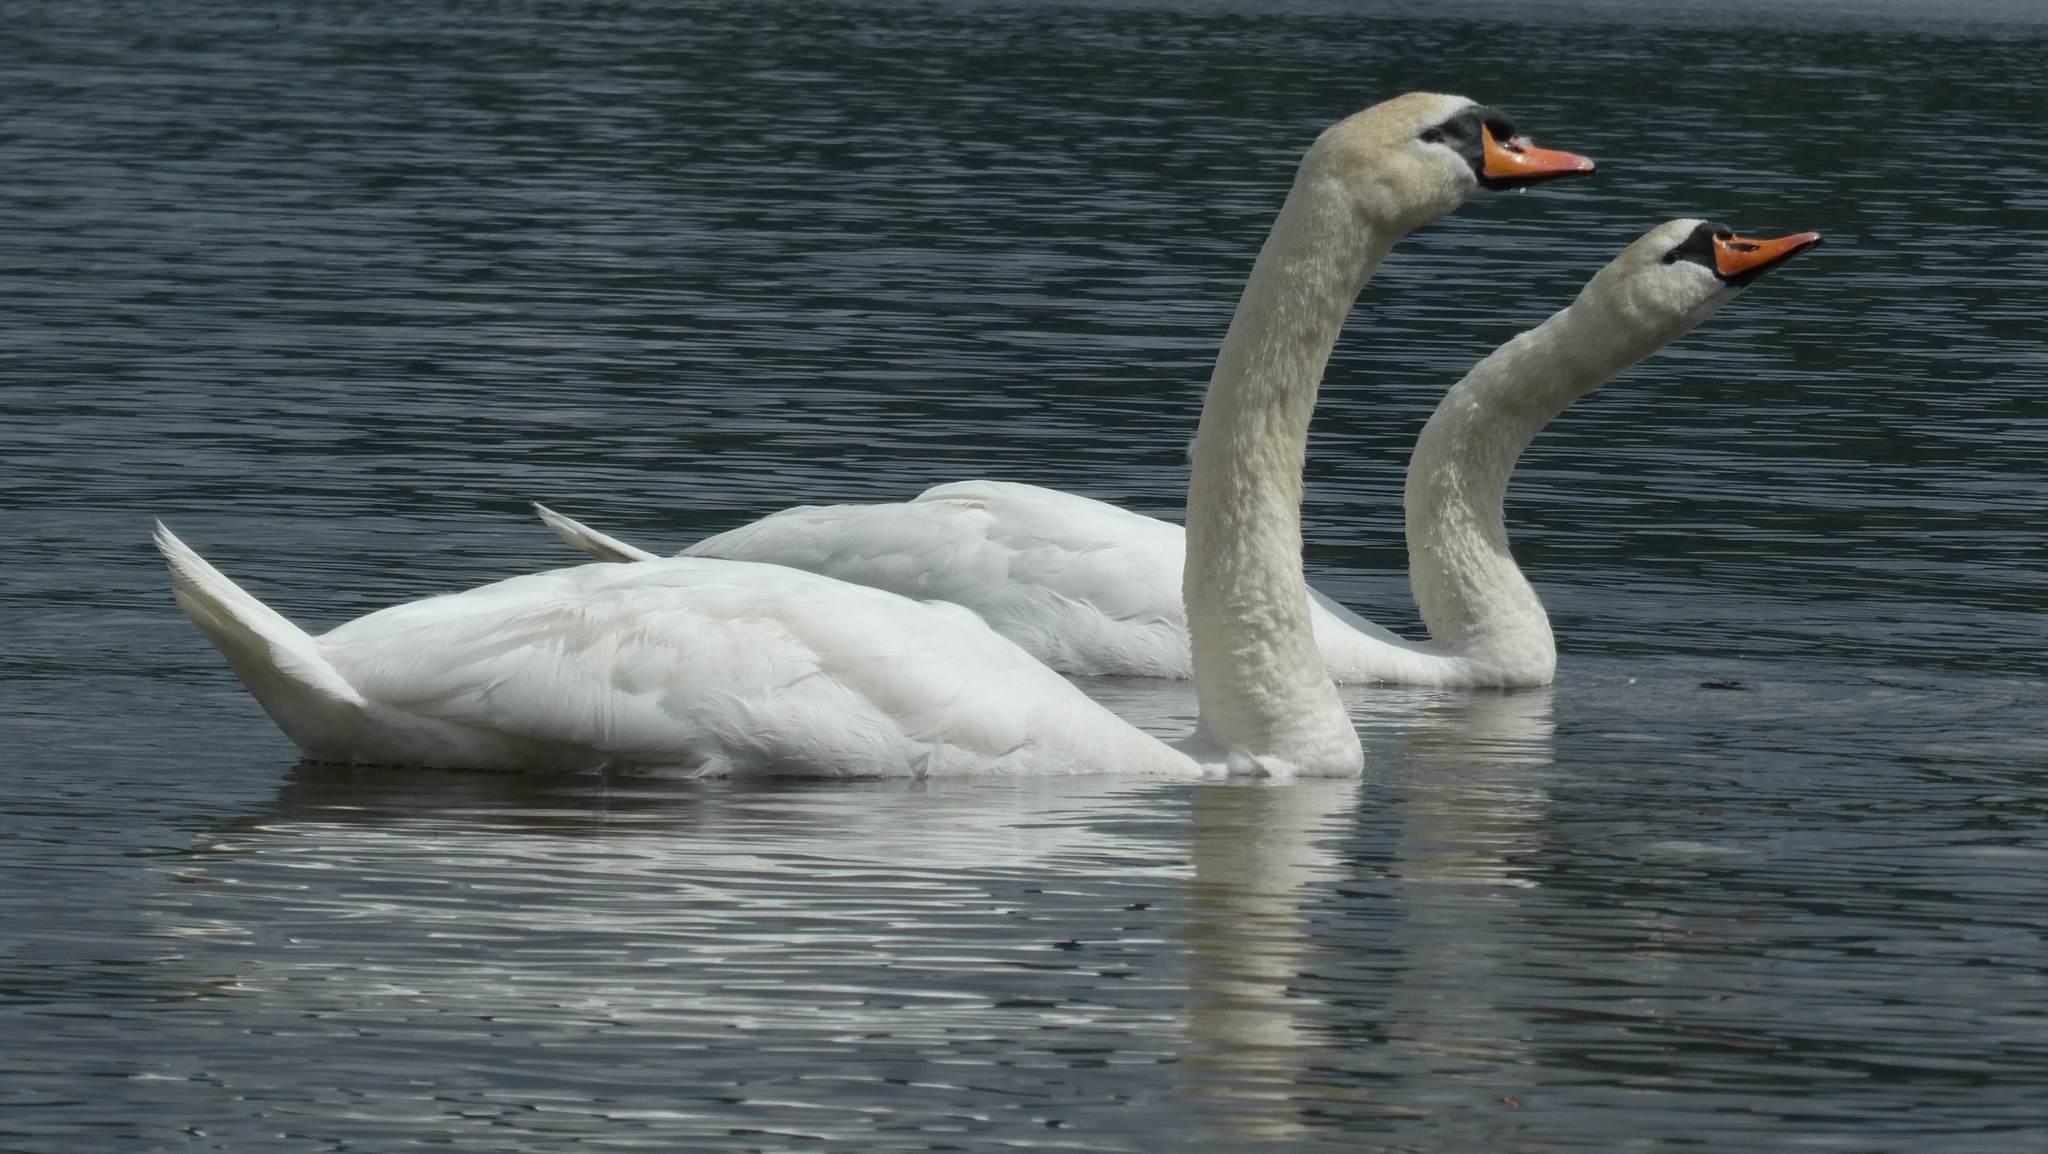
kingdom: Animalia
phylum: Chordata
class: Aves
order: Anseriformes
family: Anatidae
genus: Cygnus
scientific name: Cygnus olor
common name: Mute swan
